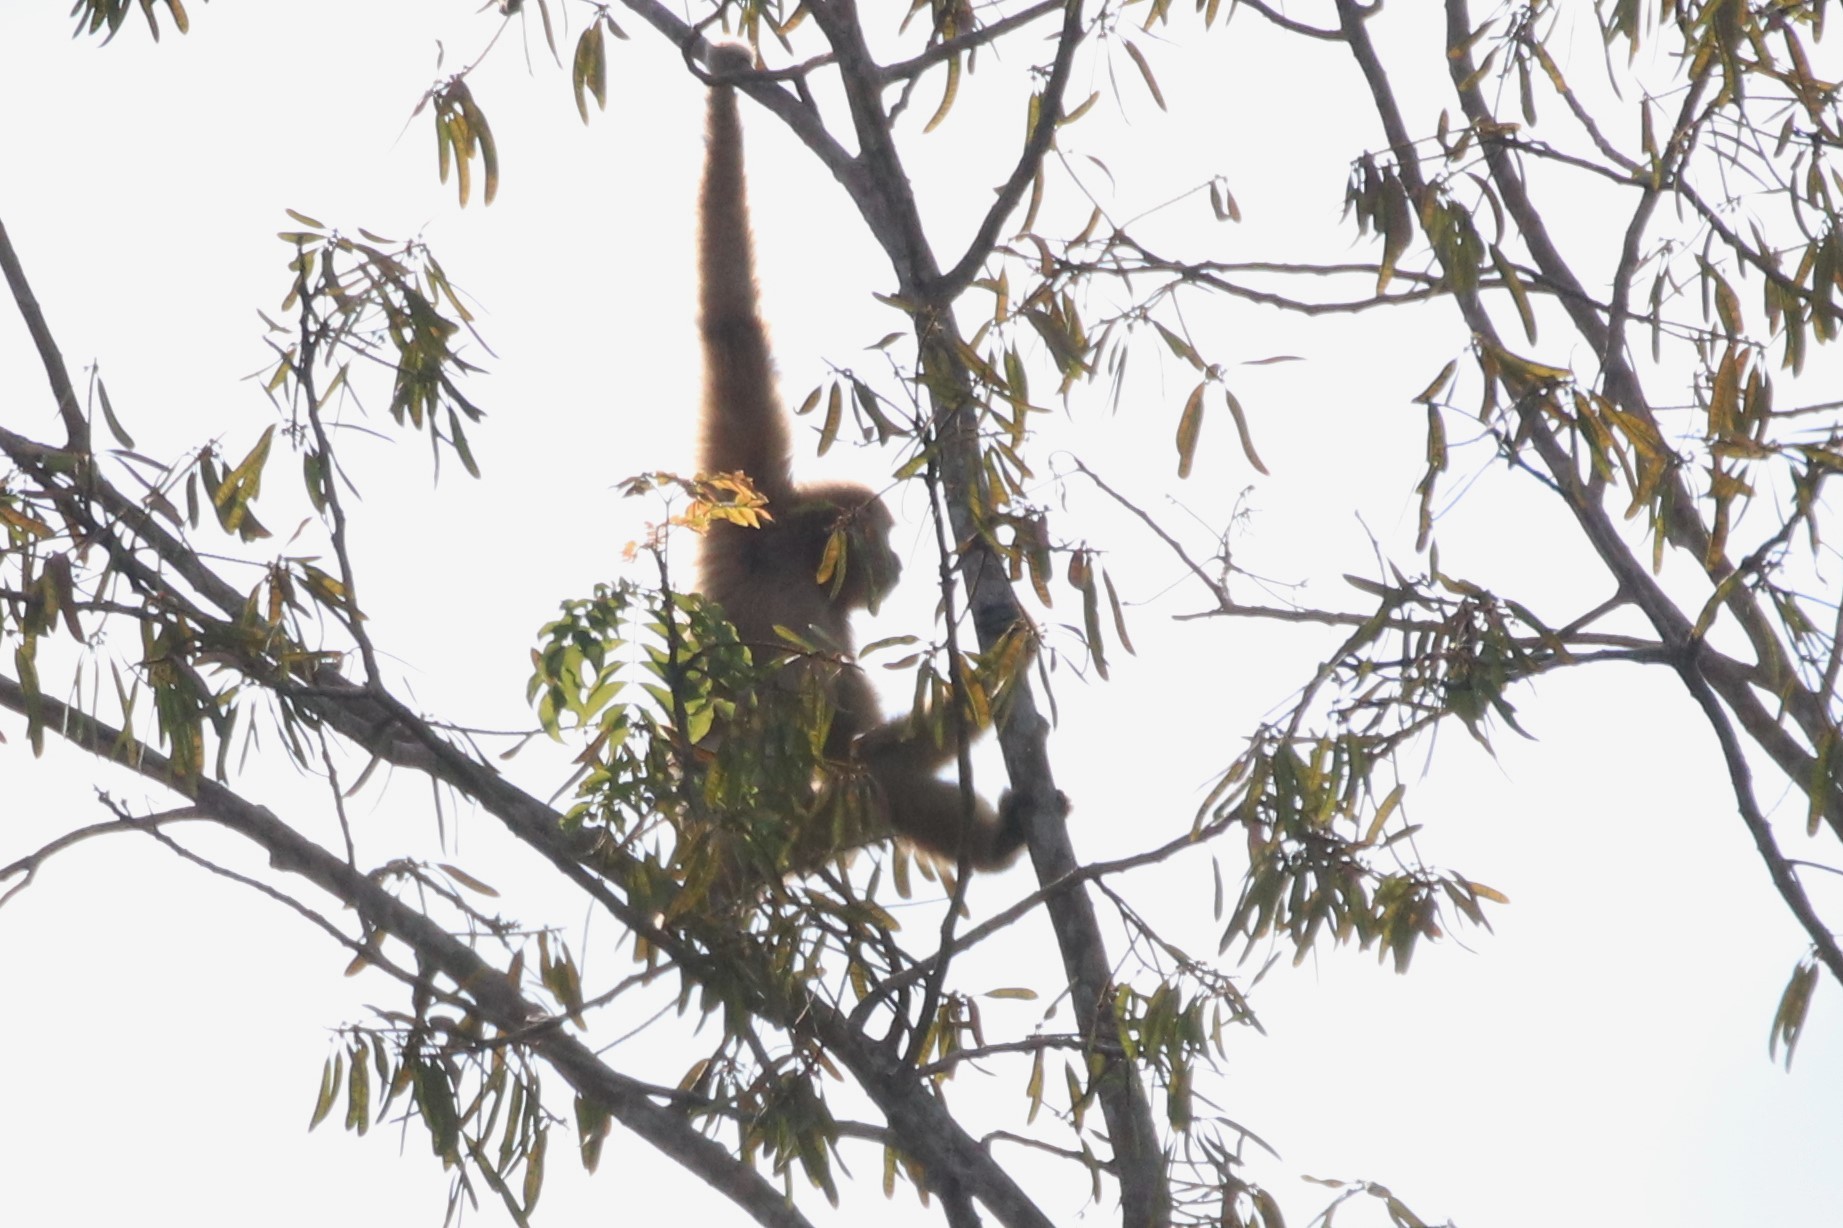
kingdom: Animalia
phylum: Chordata
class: Mammalia
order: Primates
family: Hylobatidae
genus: Hylobates
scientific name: Hylobates lar
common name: Lar gibbon
